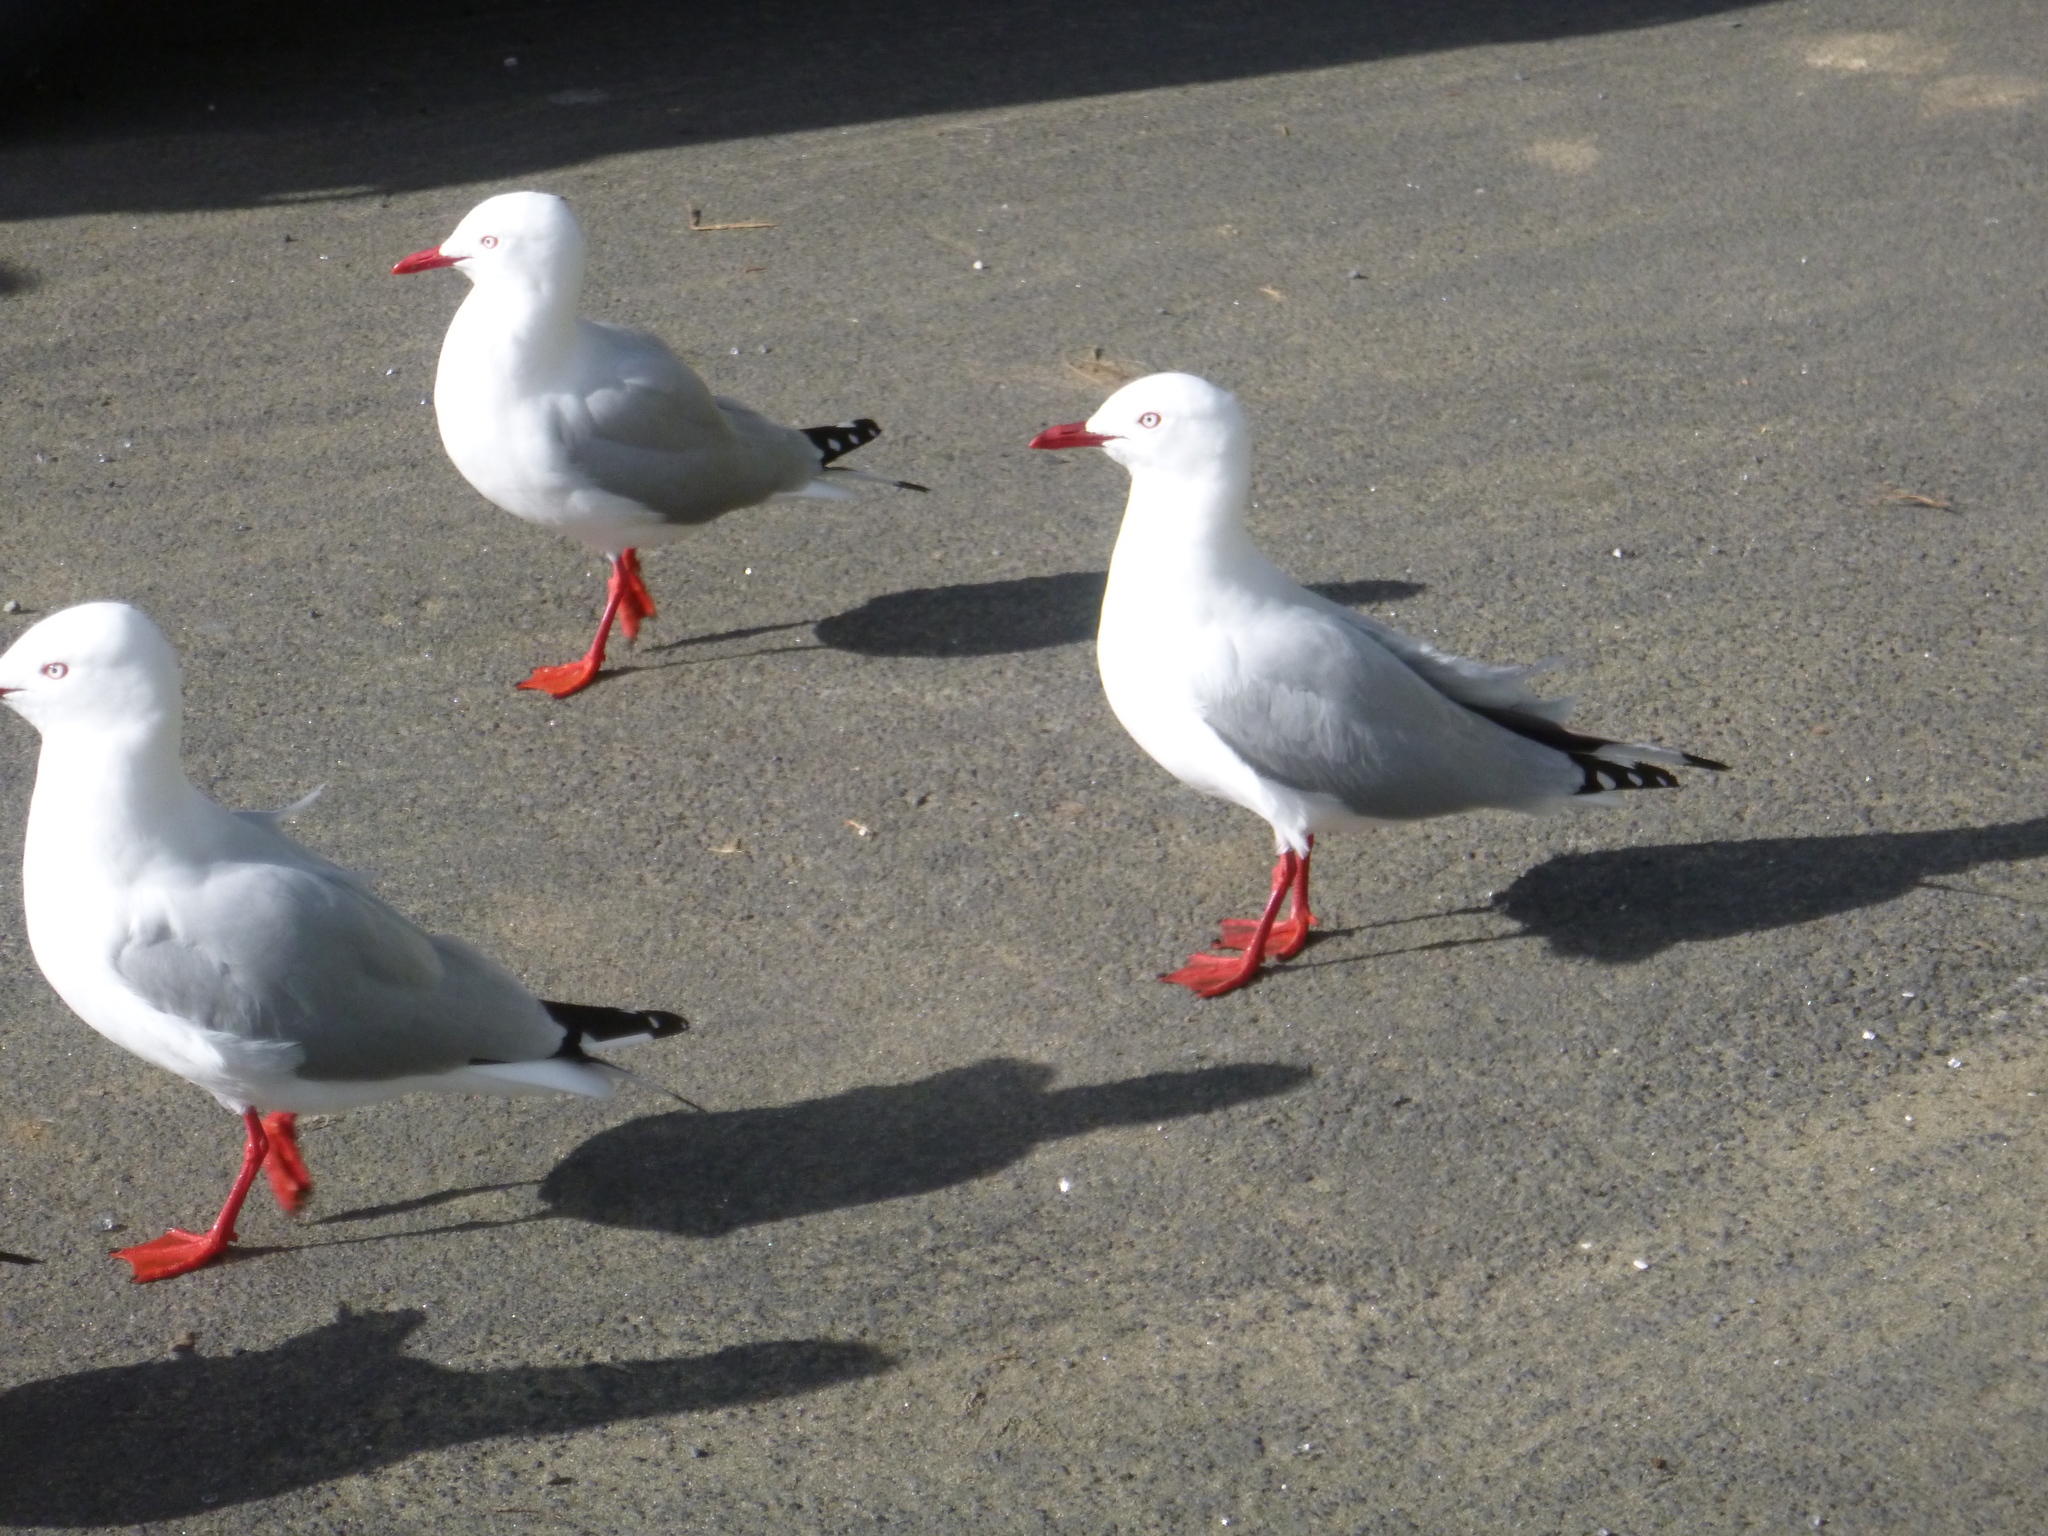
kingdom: Animalia
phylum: Chordata
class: Aves
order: Charadriiformes
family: Laridae
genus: Chroicocephalus
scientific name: Chroicocephalus novaehollandiae
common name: Silver gull
